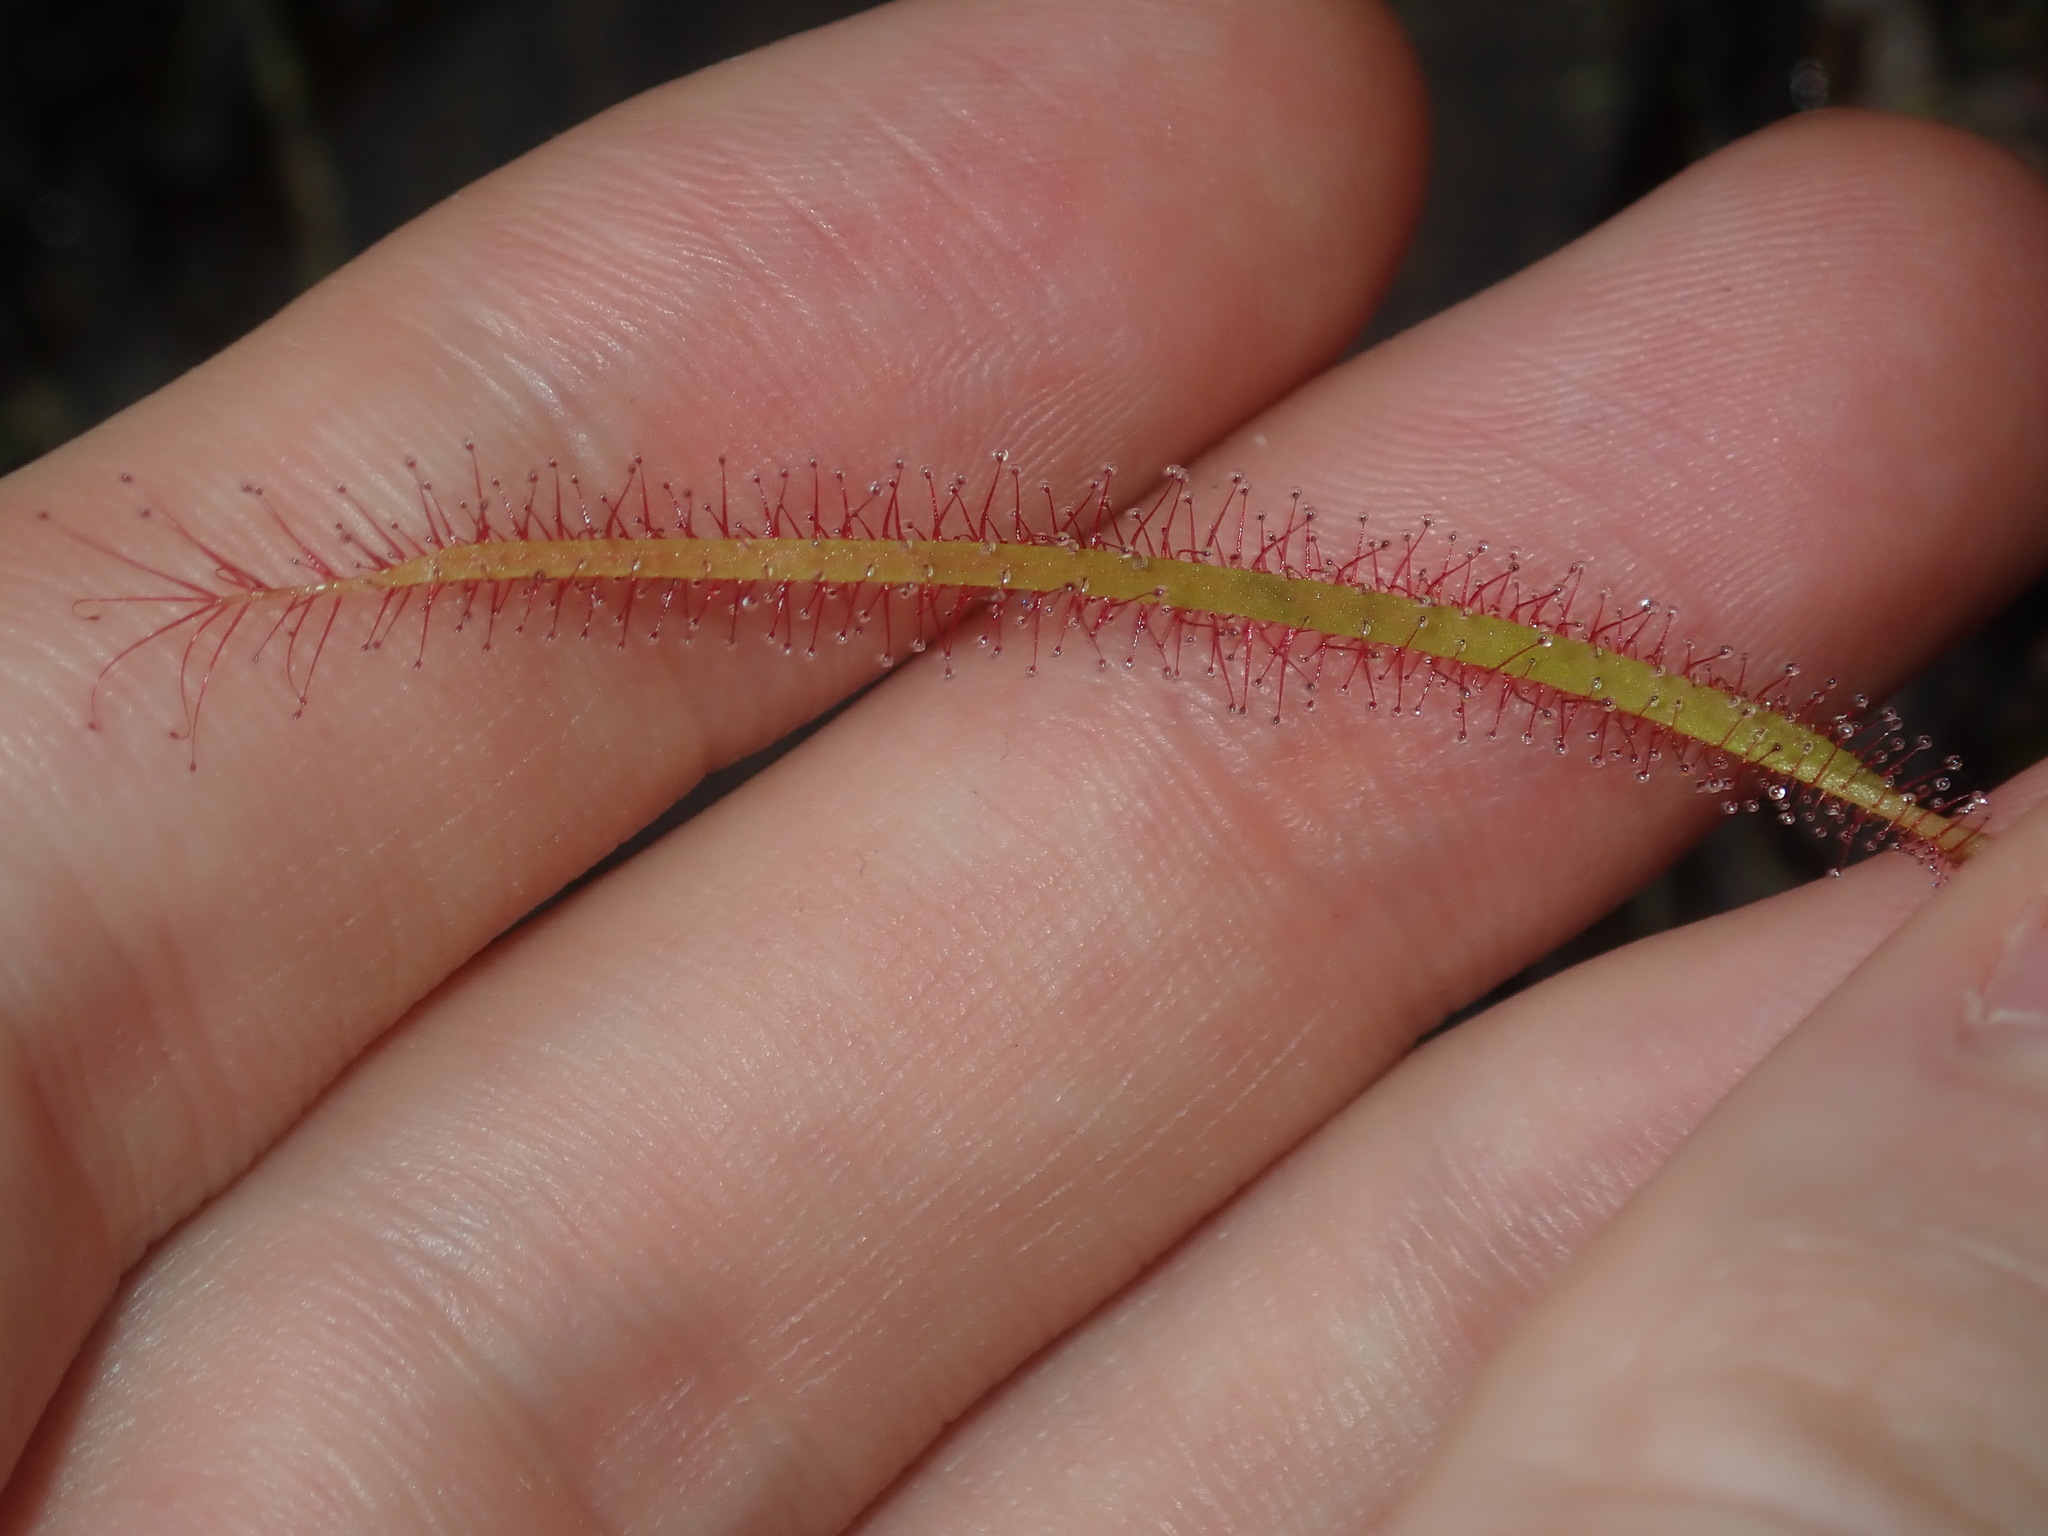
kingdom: Plantae
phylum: Tracheophyta
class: Magnoliopsida
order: Caryophyllales
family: Droseraceae
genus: Drosera
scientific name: Drosera binata
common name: Forked sundew
